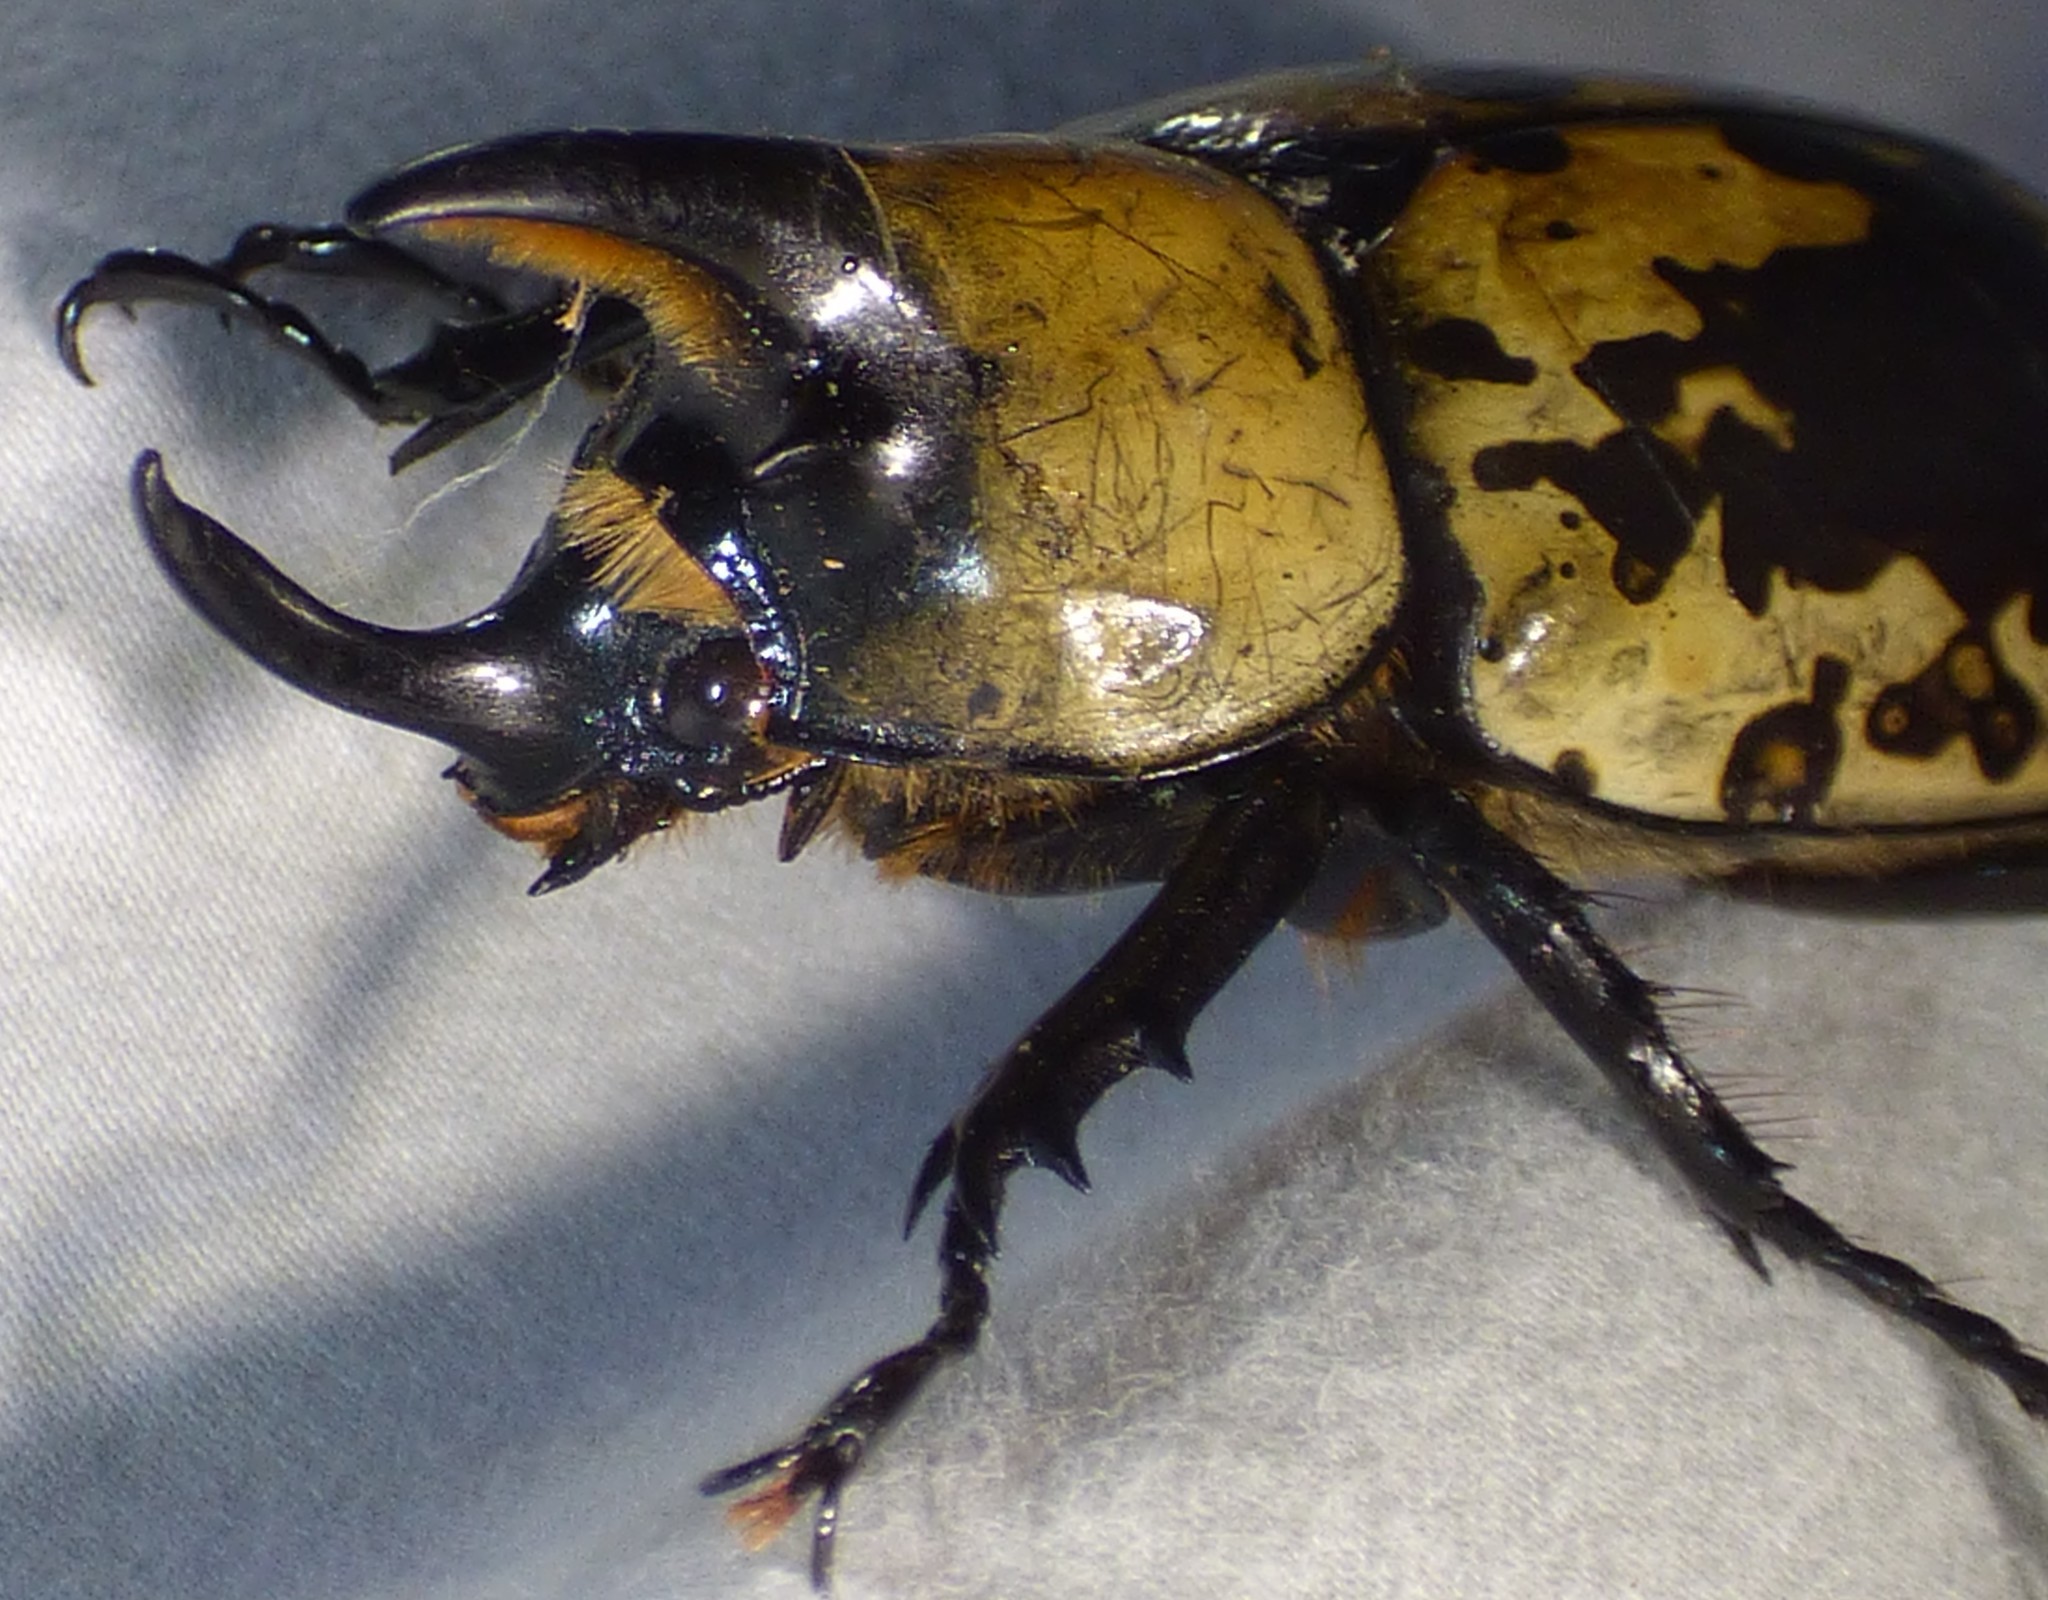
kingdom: Animalia
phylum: Arthropoda
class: Insecta
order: Coleoptera
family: Scarabaeidae
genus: Dynastes
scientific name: Dynastes tityus
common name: Eastern hercules beetle
